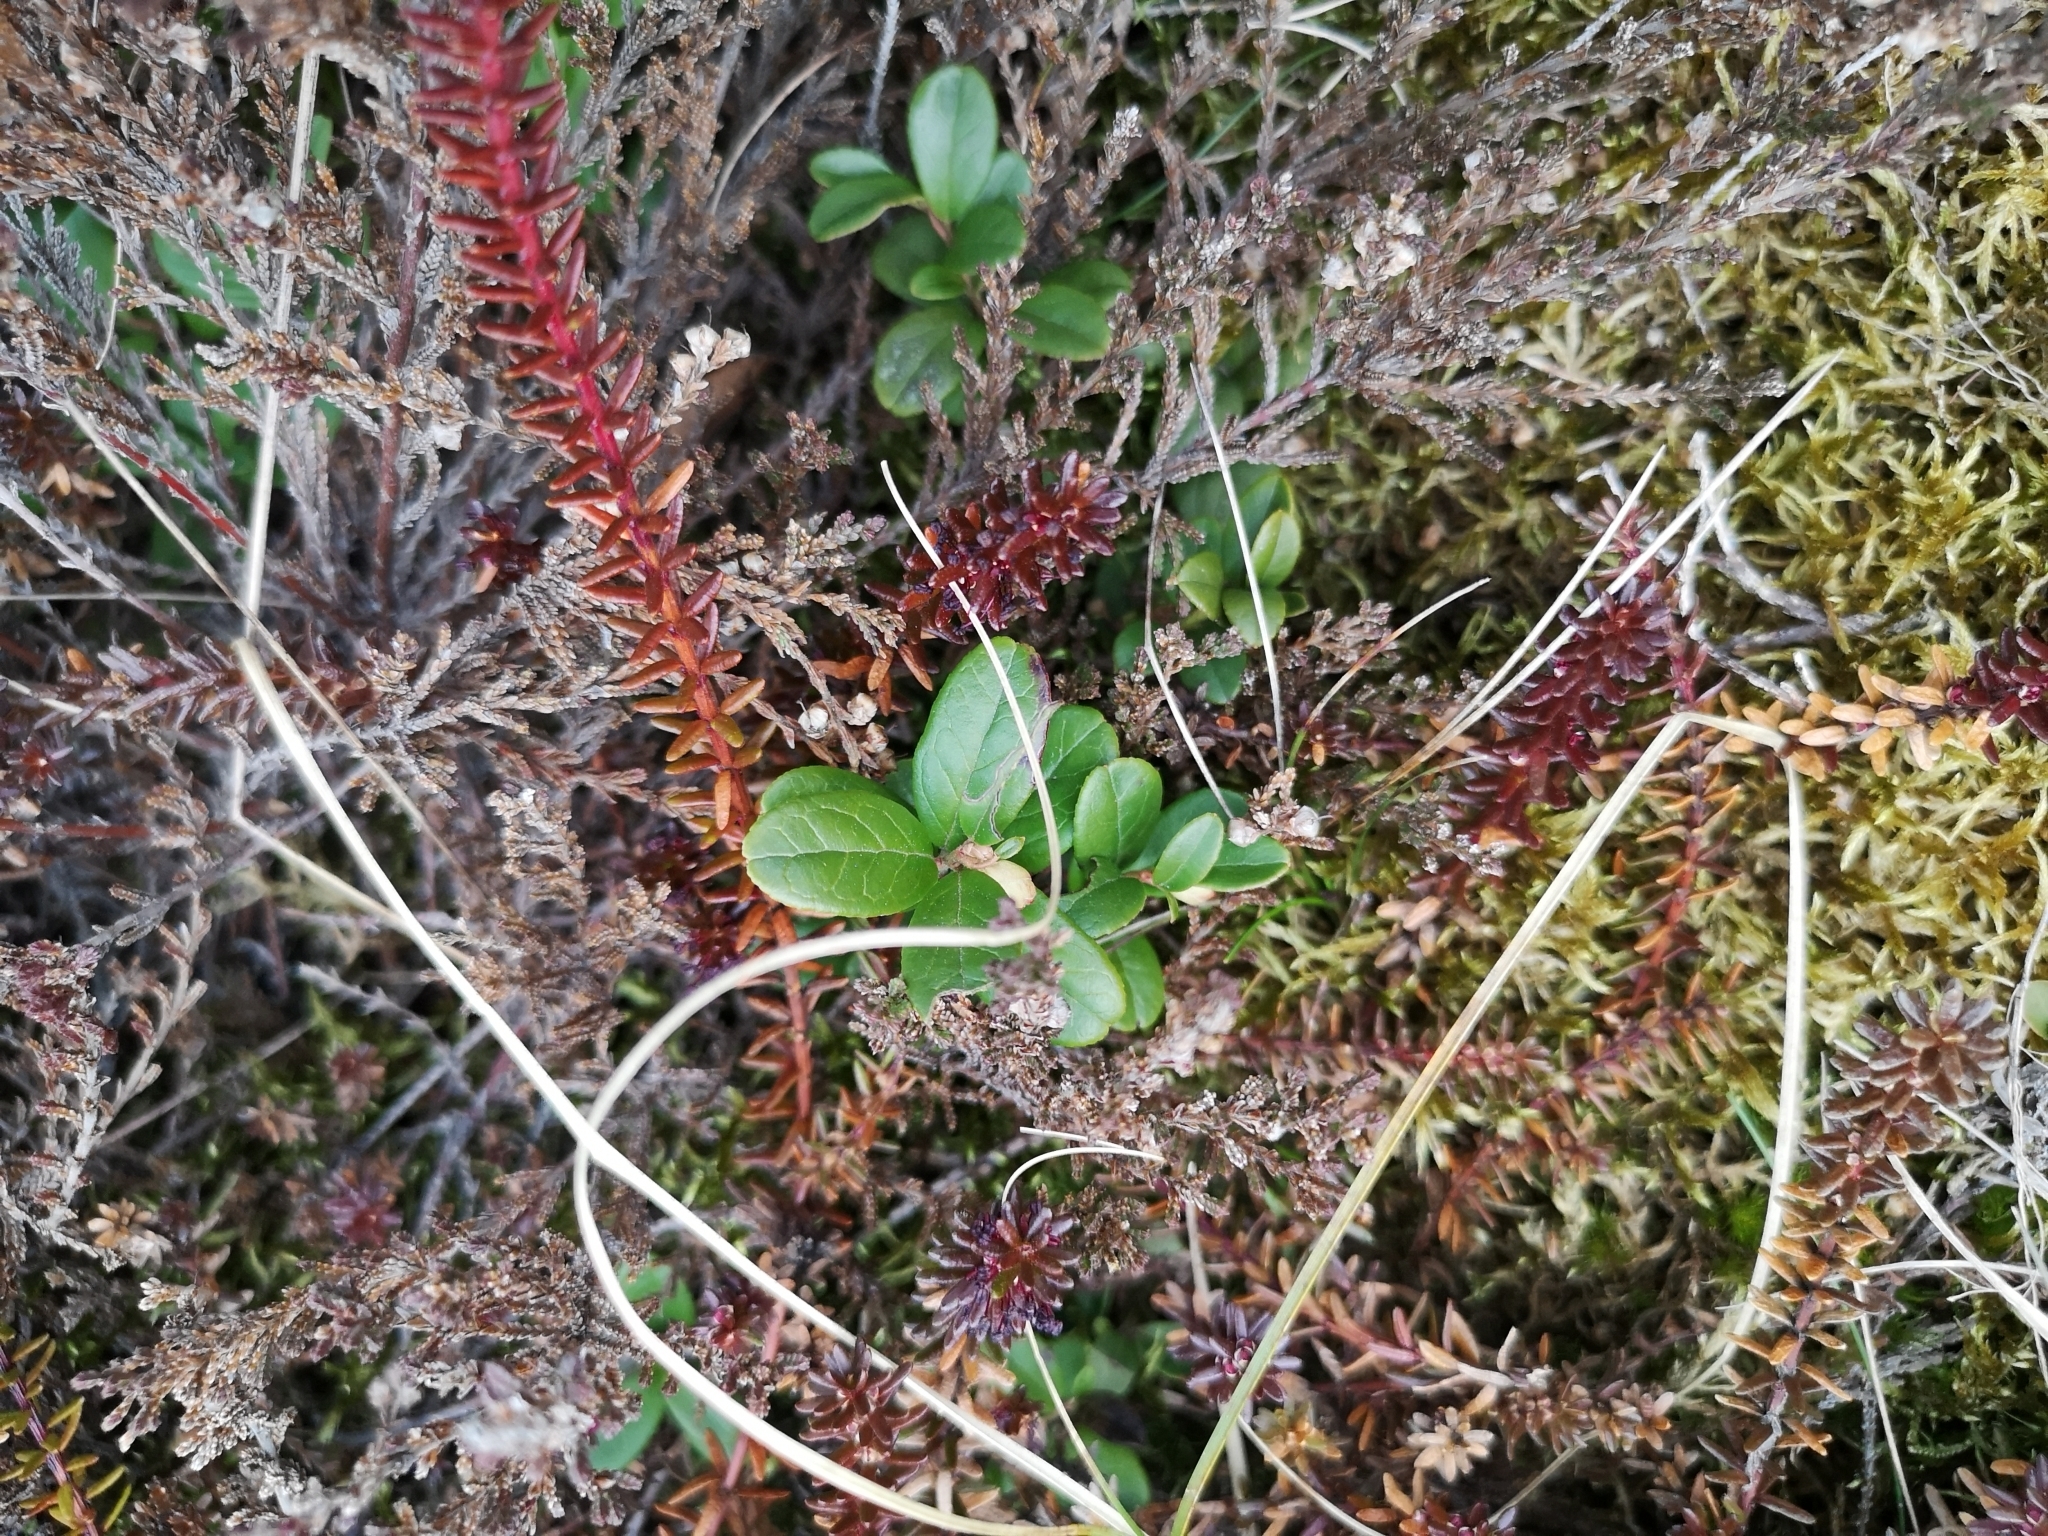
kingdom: Plantae
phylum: Tracheophyta
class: Magnoliopsida
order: Ericales
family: Ericaceae
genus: Vaccinium
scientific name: Vaccinium vitis-idaea
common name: Cowberry
